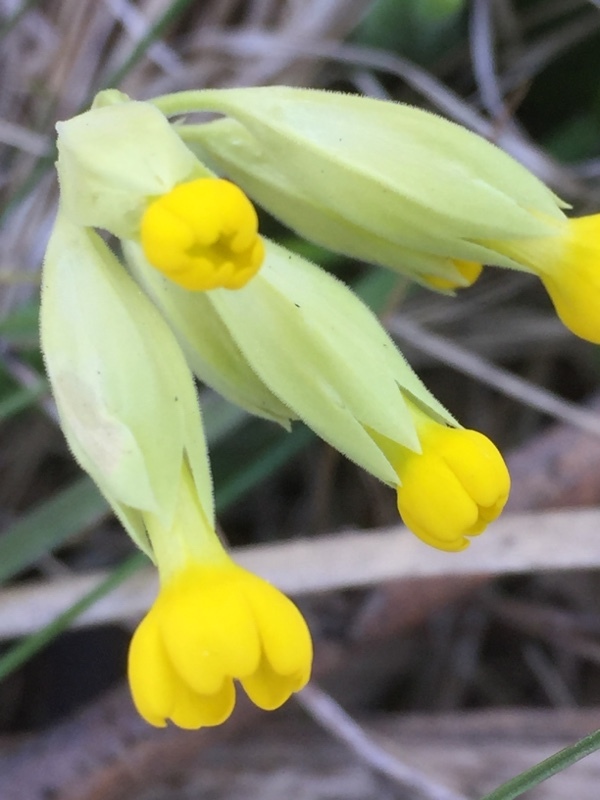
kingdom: Plantae
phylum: Tracheophyta
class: Magnoliopsida
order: Ericales
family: Primulaceae
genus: Primula
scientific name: Primula veris
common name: Cowslip
